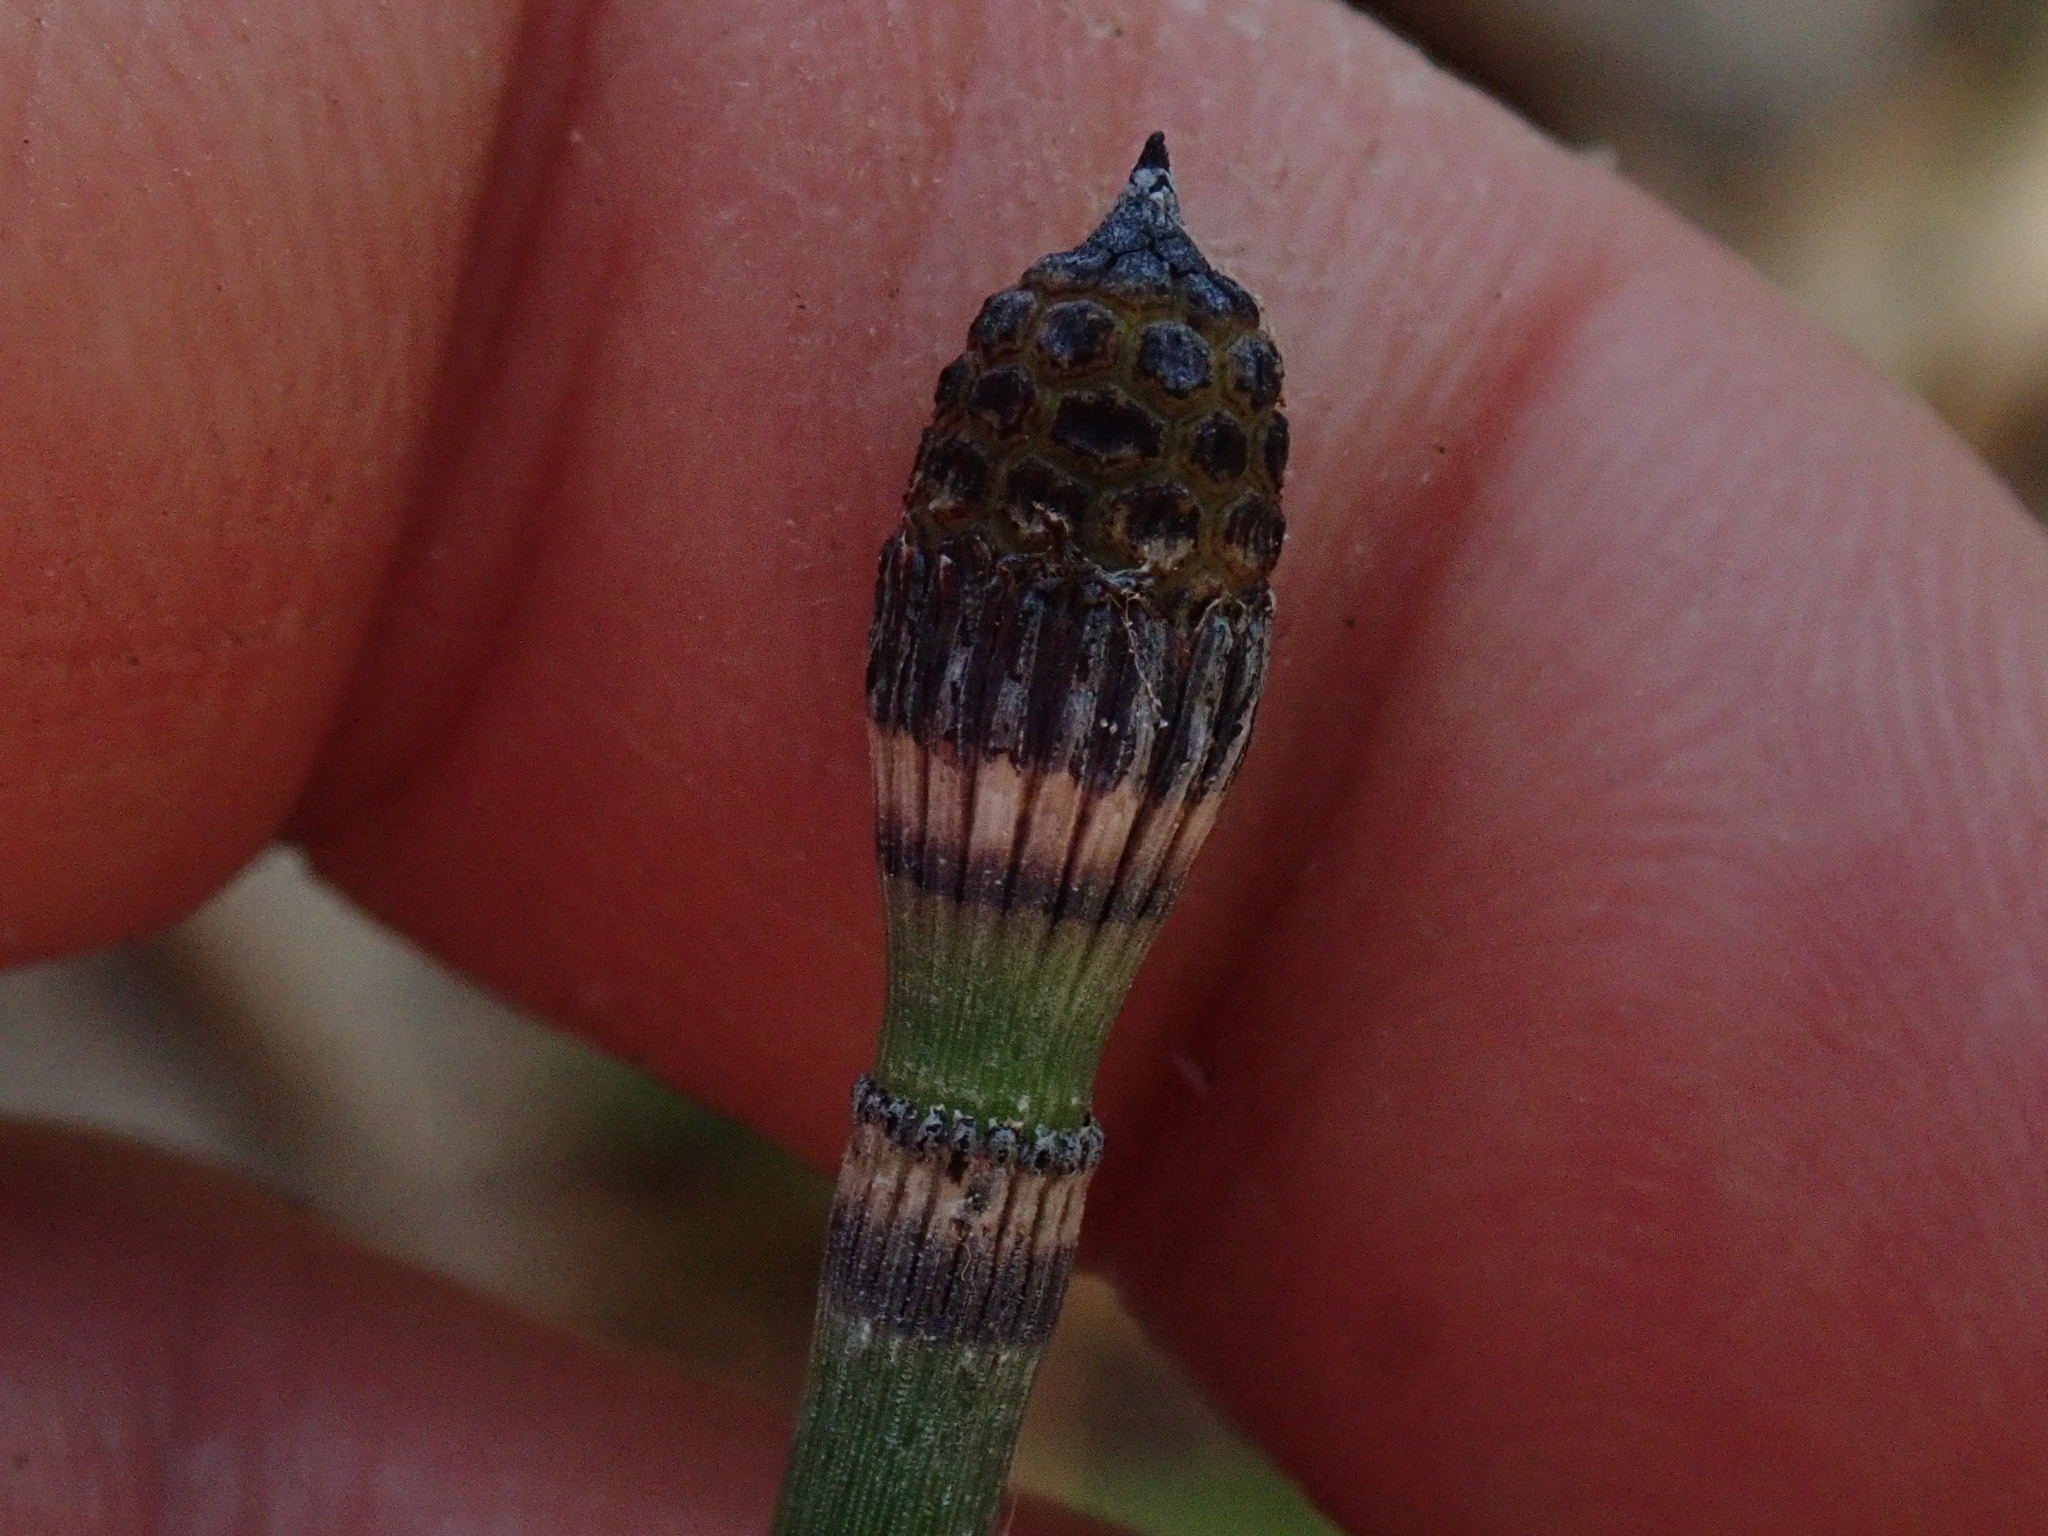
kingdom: Plantae
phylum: Tracheophyta
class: Polypodiopsida
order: Equisetales
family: Equisetaceae
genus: Equisetum
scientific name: Equisetum hyemale
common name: Rough horsetail
